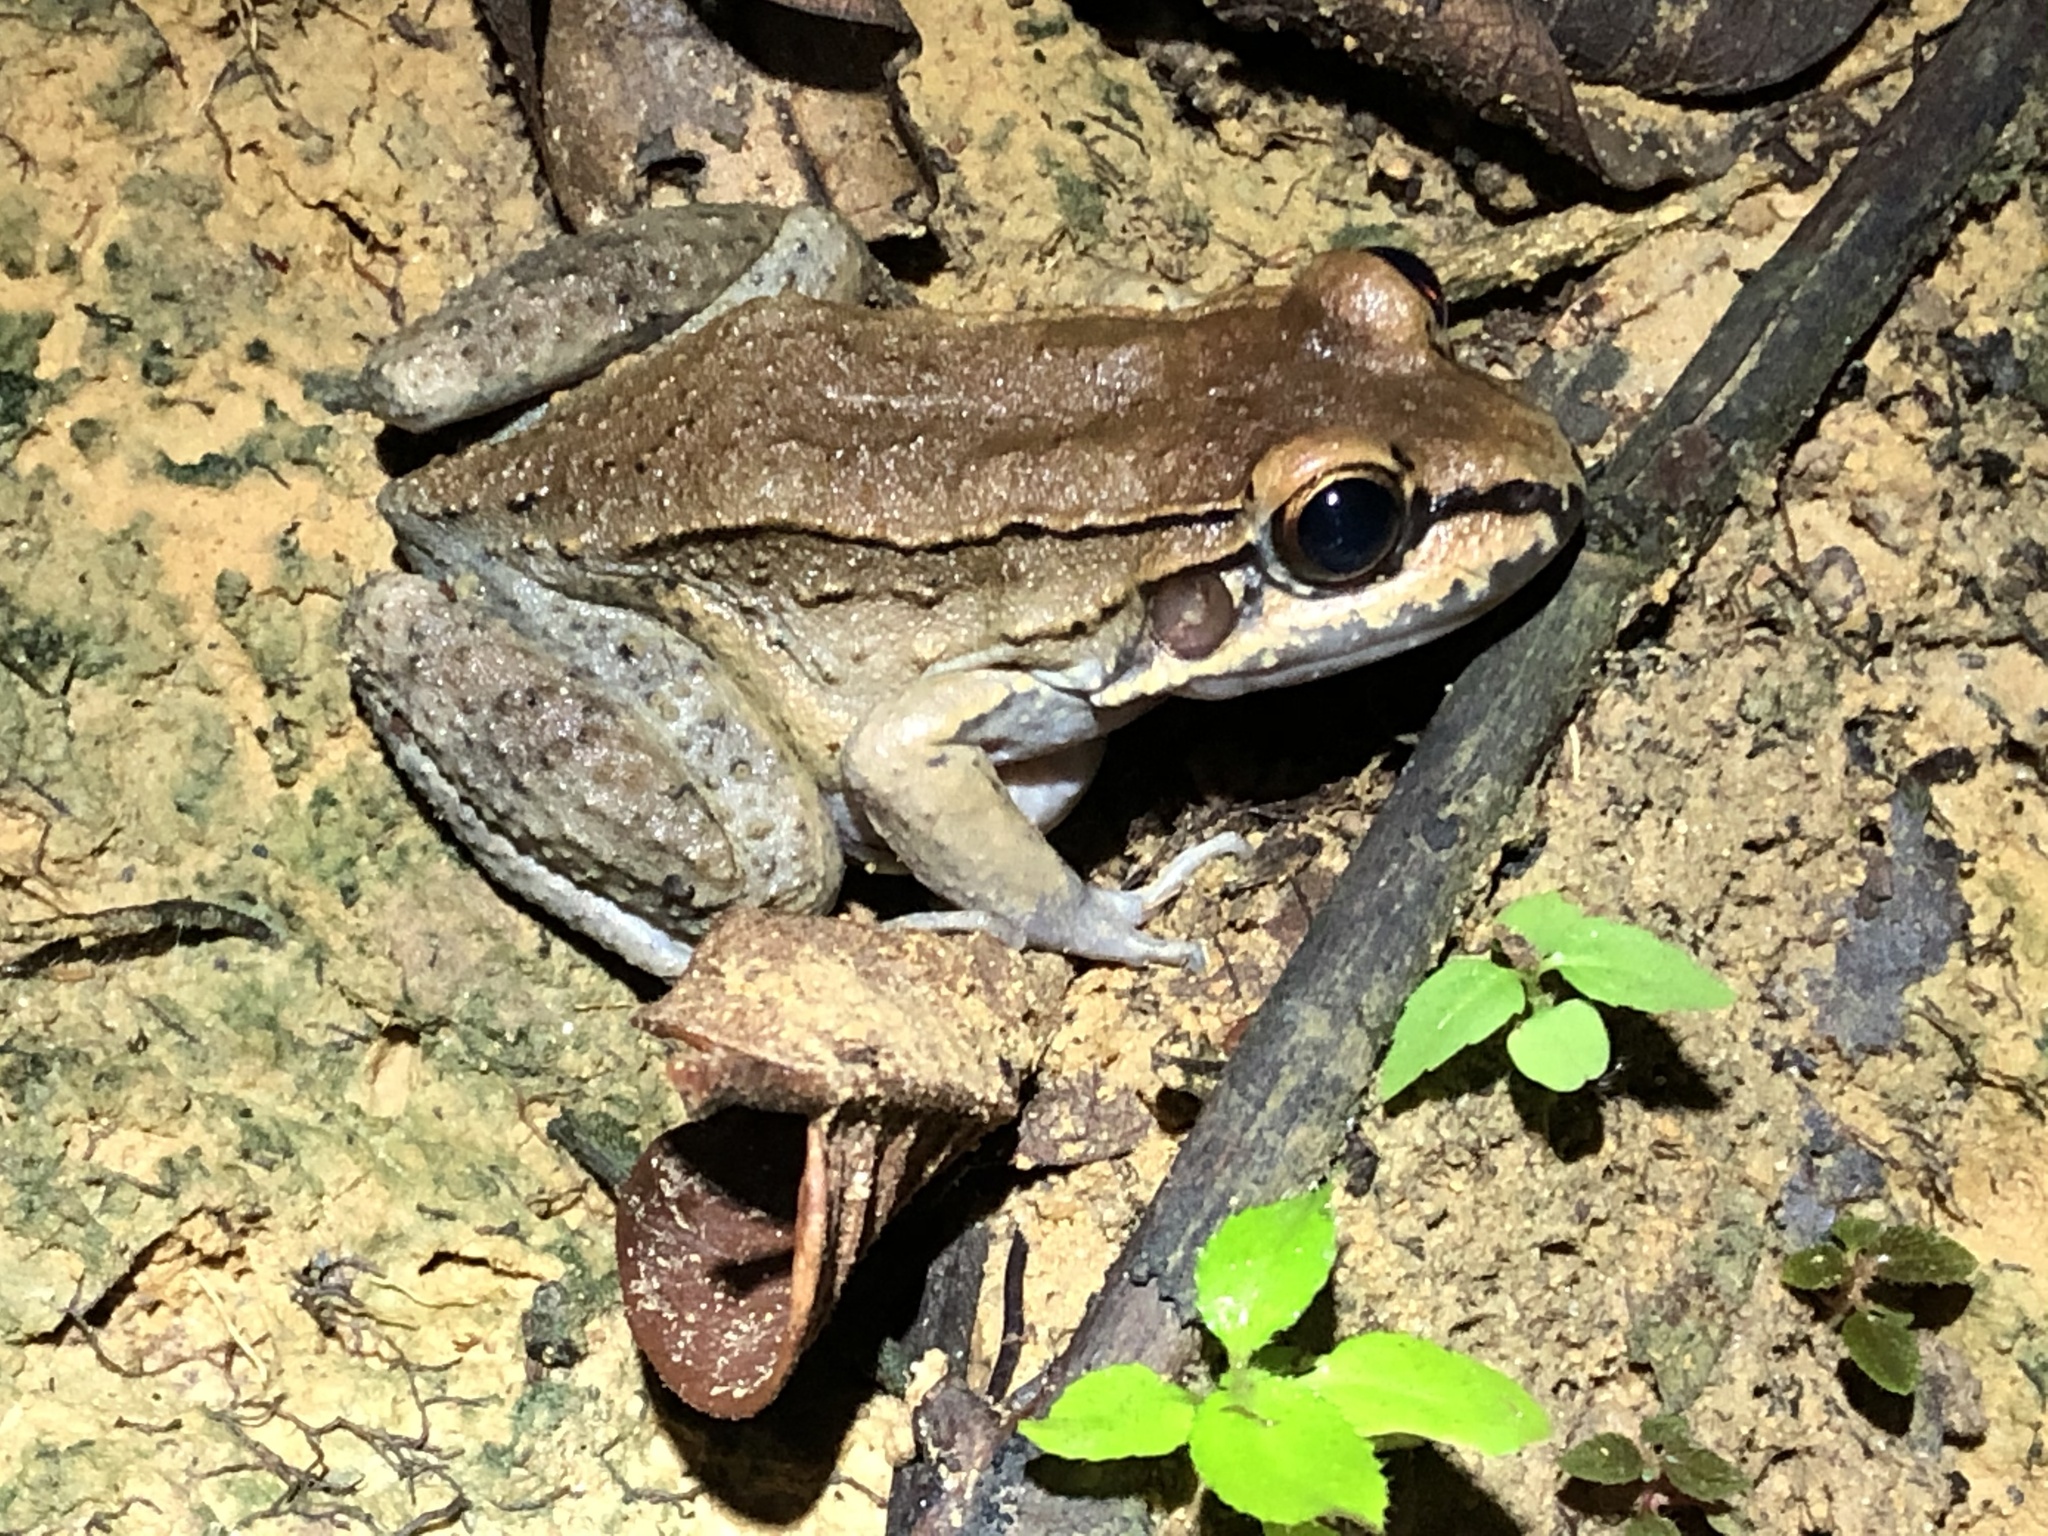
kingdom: Animalia
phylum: Chordata
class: Amphibia
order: Anura
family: Leptodactylidae
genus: Leptodactylus
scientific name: Leptodactylus rhodonotus
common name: Peru white-lipped frog
